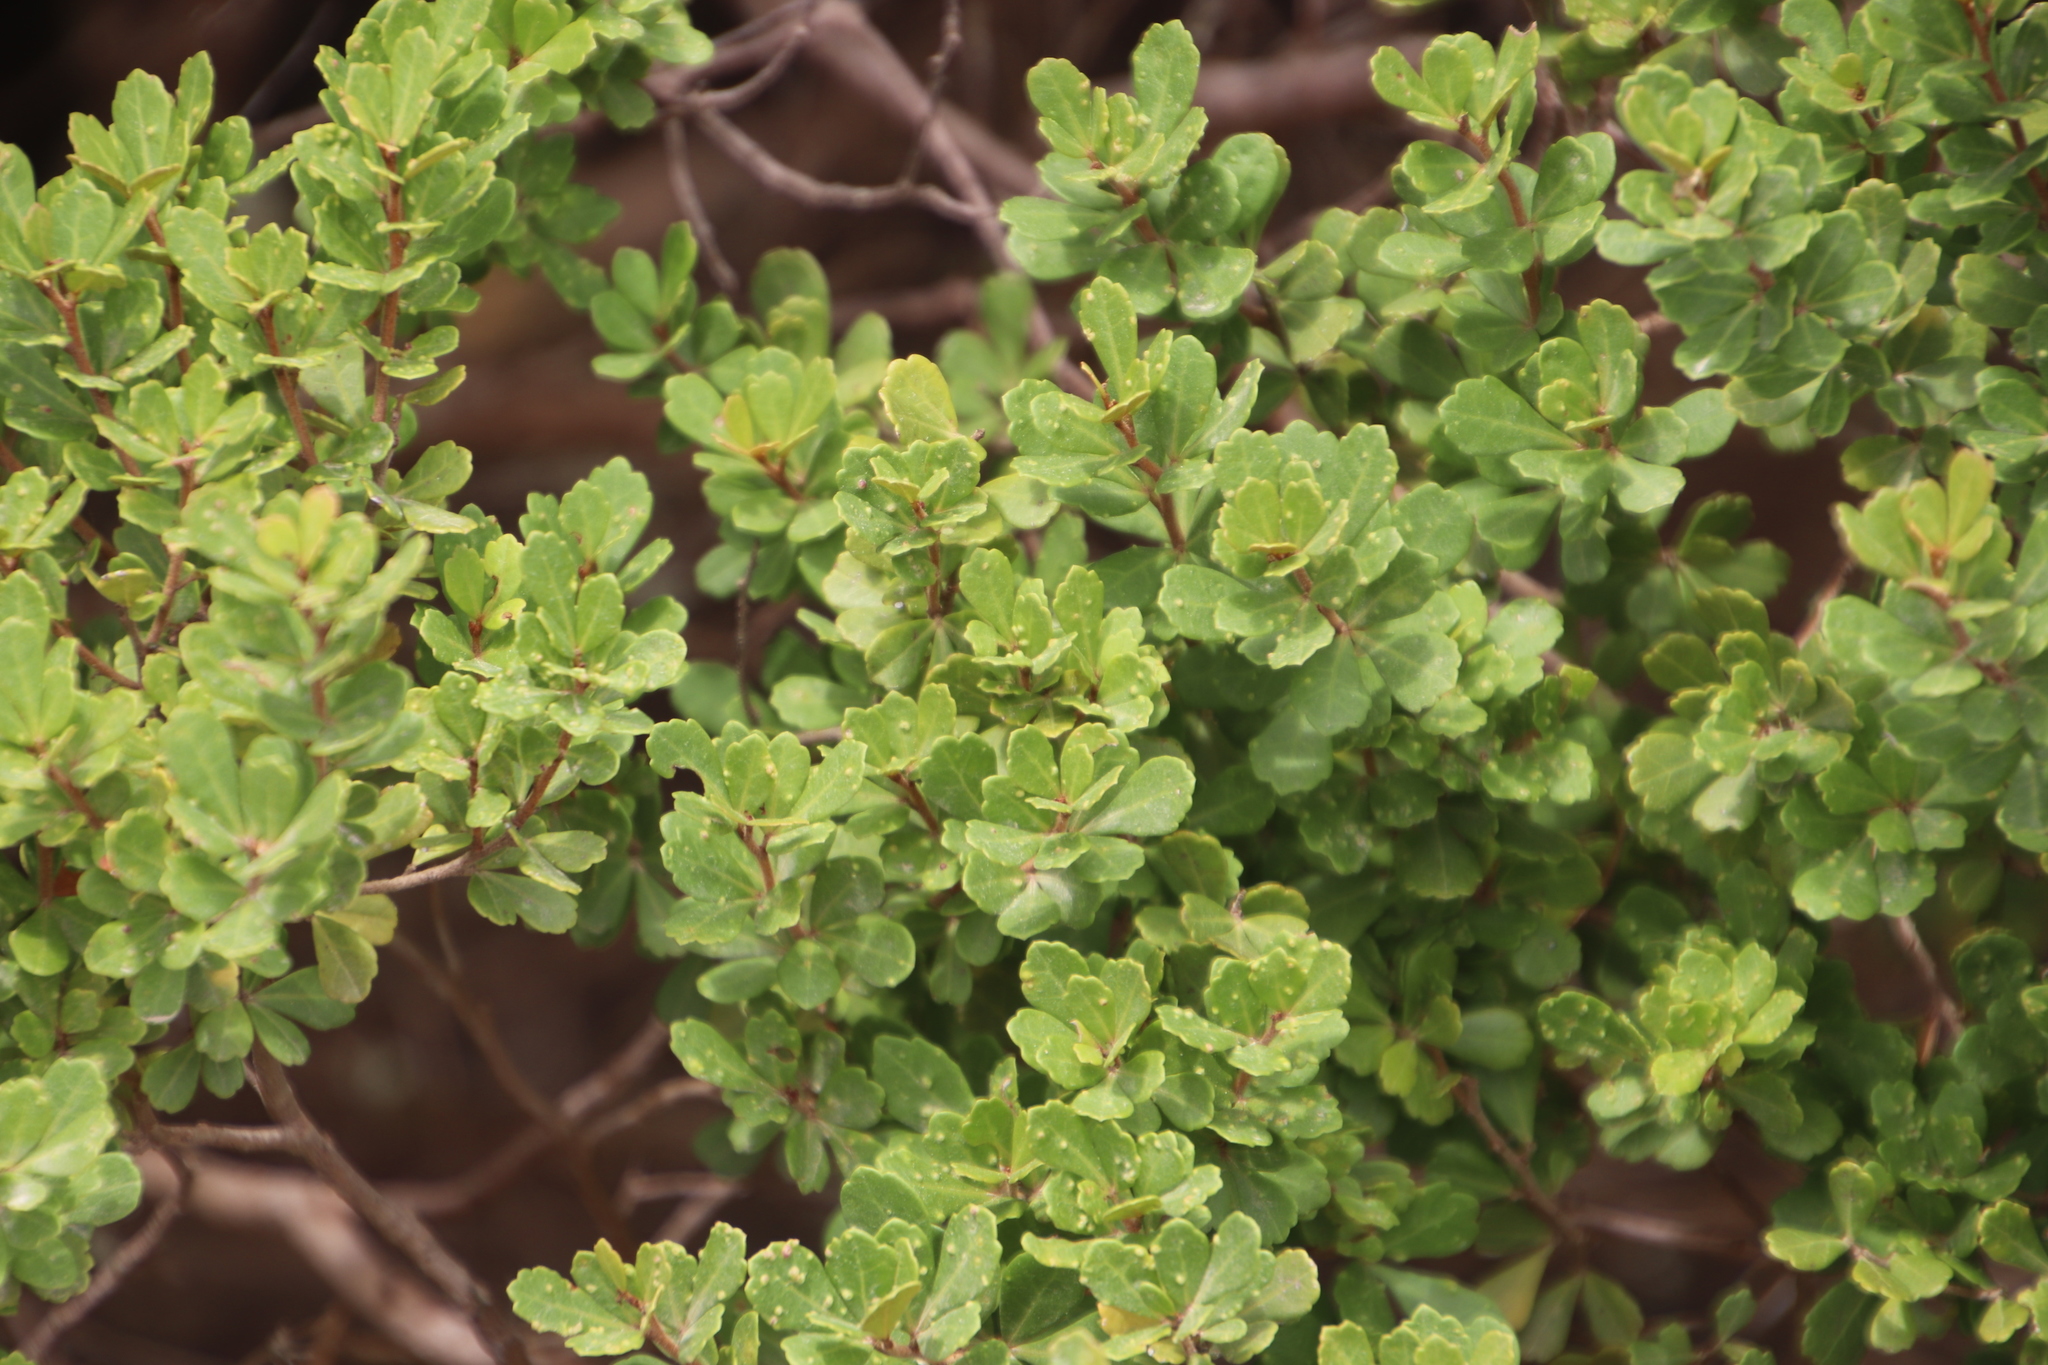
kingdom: Plantae
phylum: Tracheophyta
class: Magnoliopsida
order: Sapindales
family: Anacardiaceae
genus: Searsia
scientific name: Searsia crenata
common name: Crowberry
